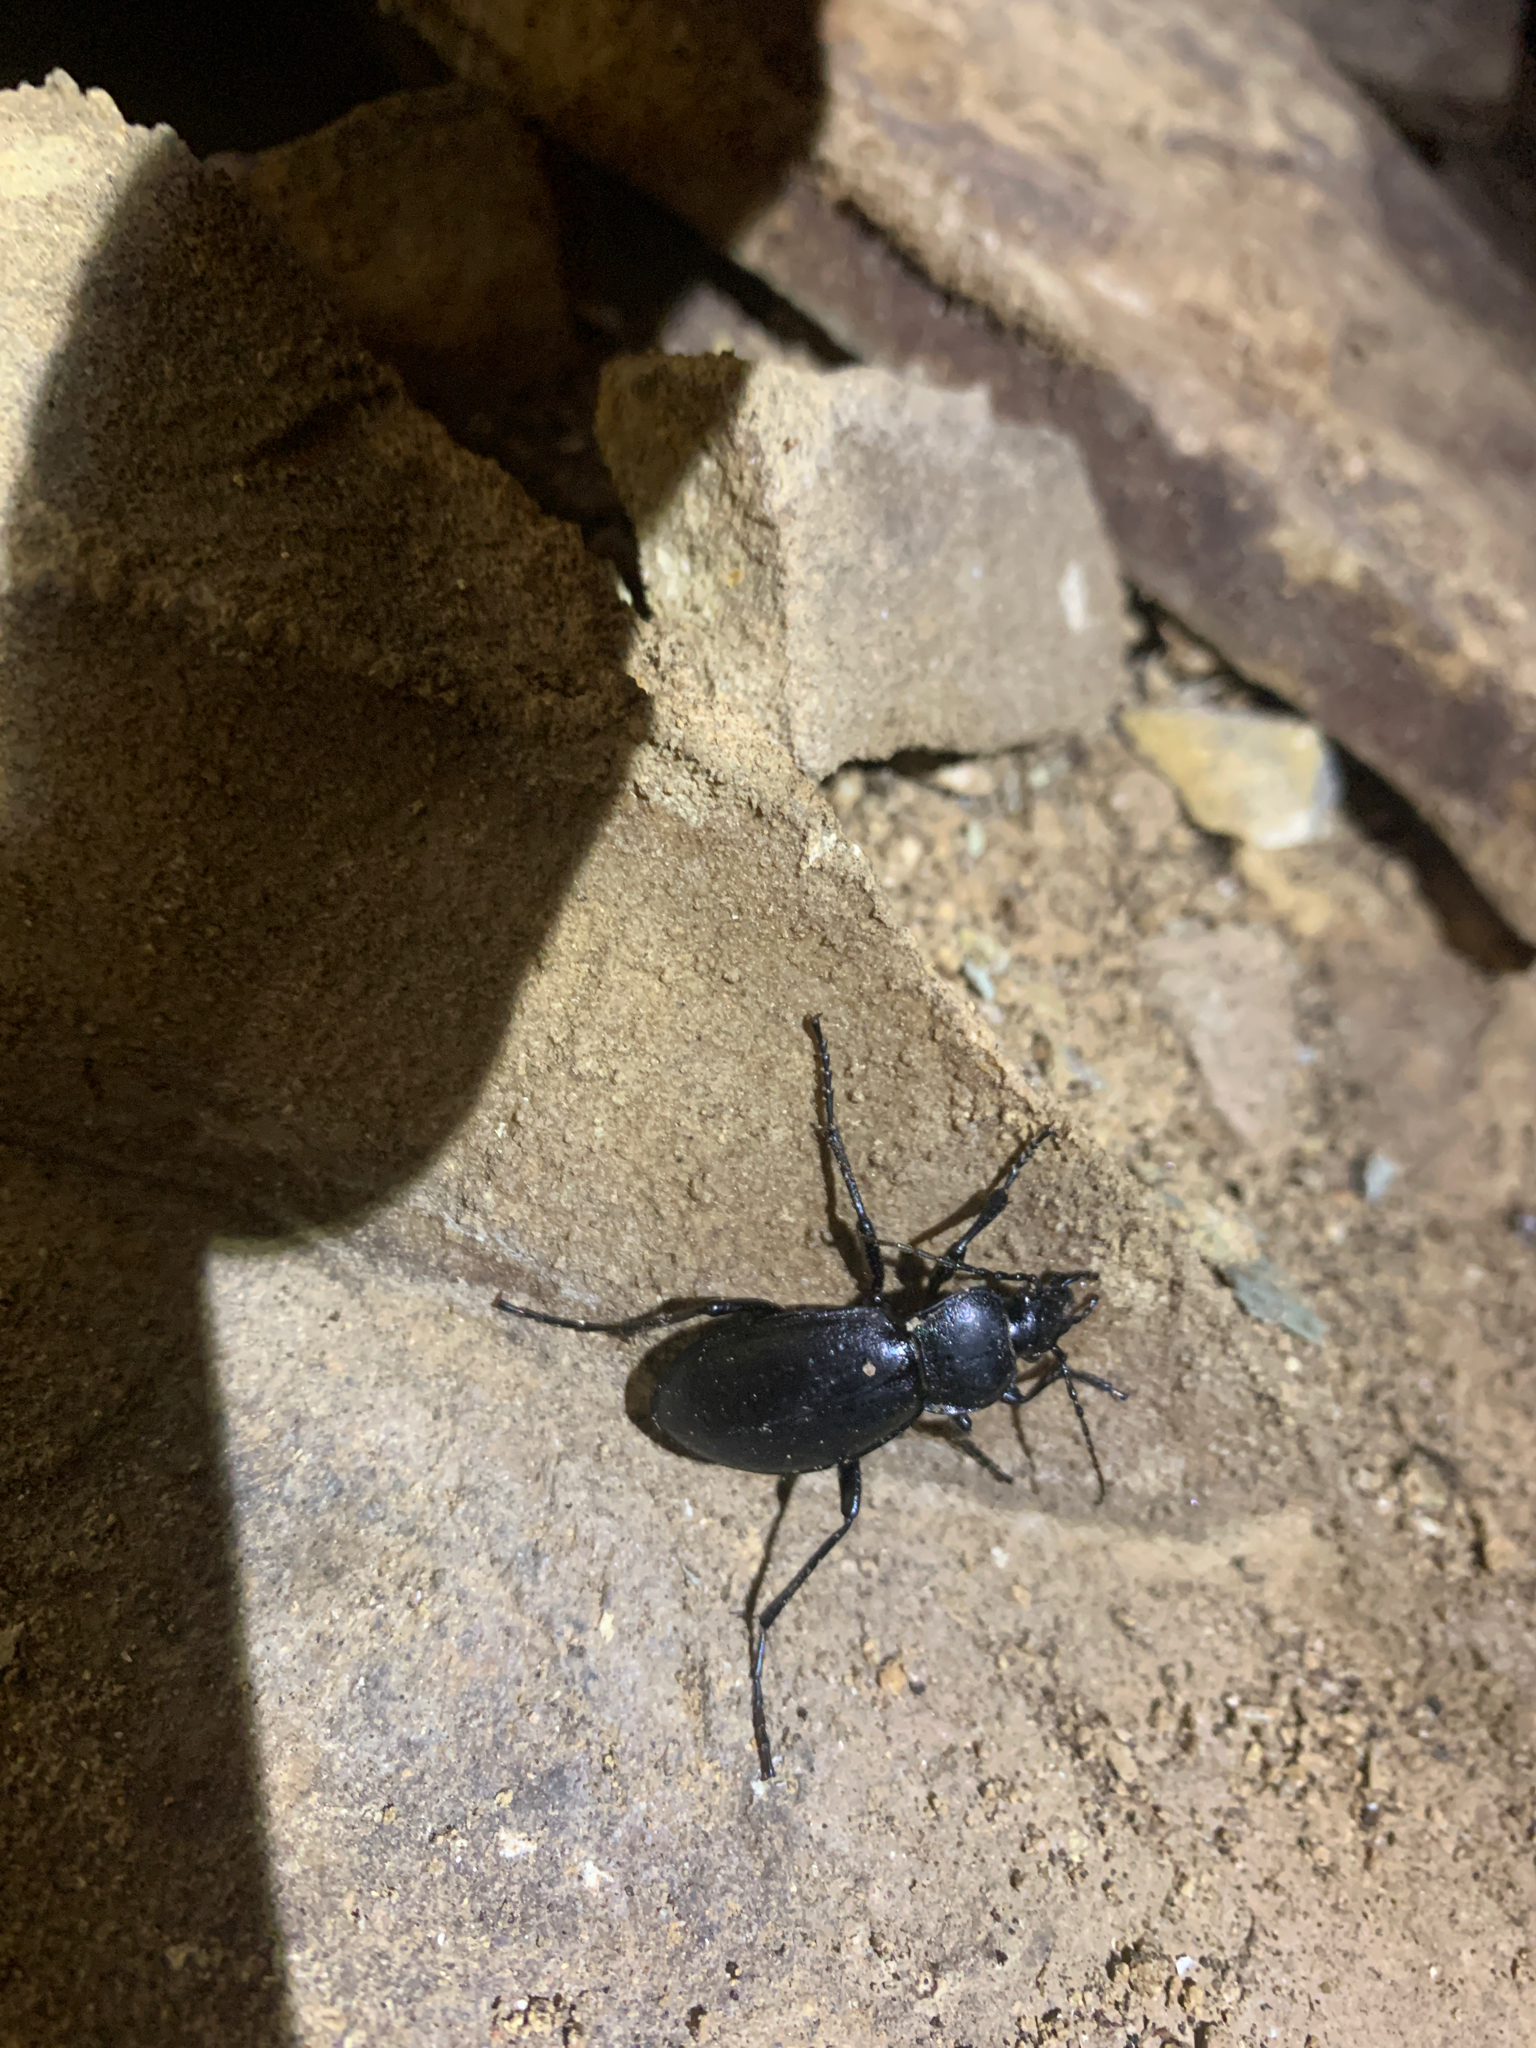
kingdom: Animalia
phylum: Arthropoda
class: Insecta
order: Coleoptera
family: Carabidae
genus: Carabus
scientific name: Carabus taedatus
